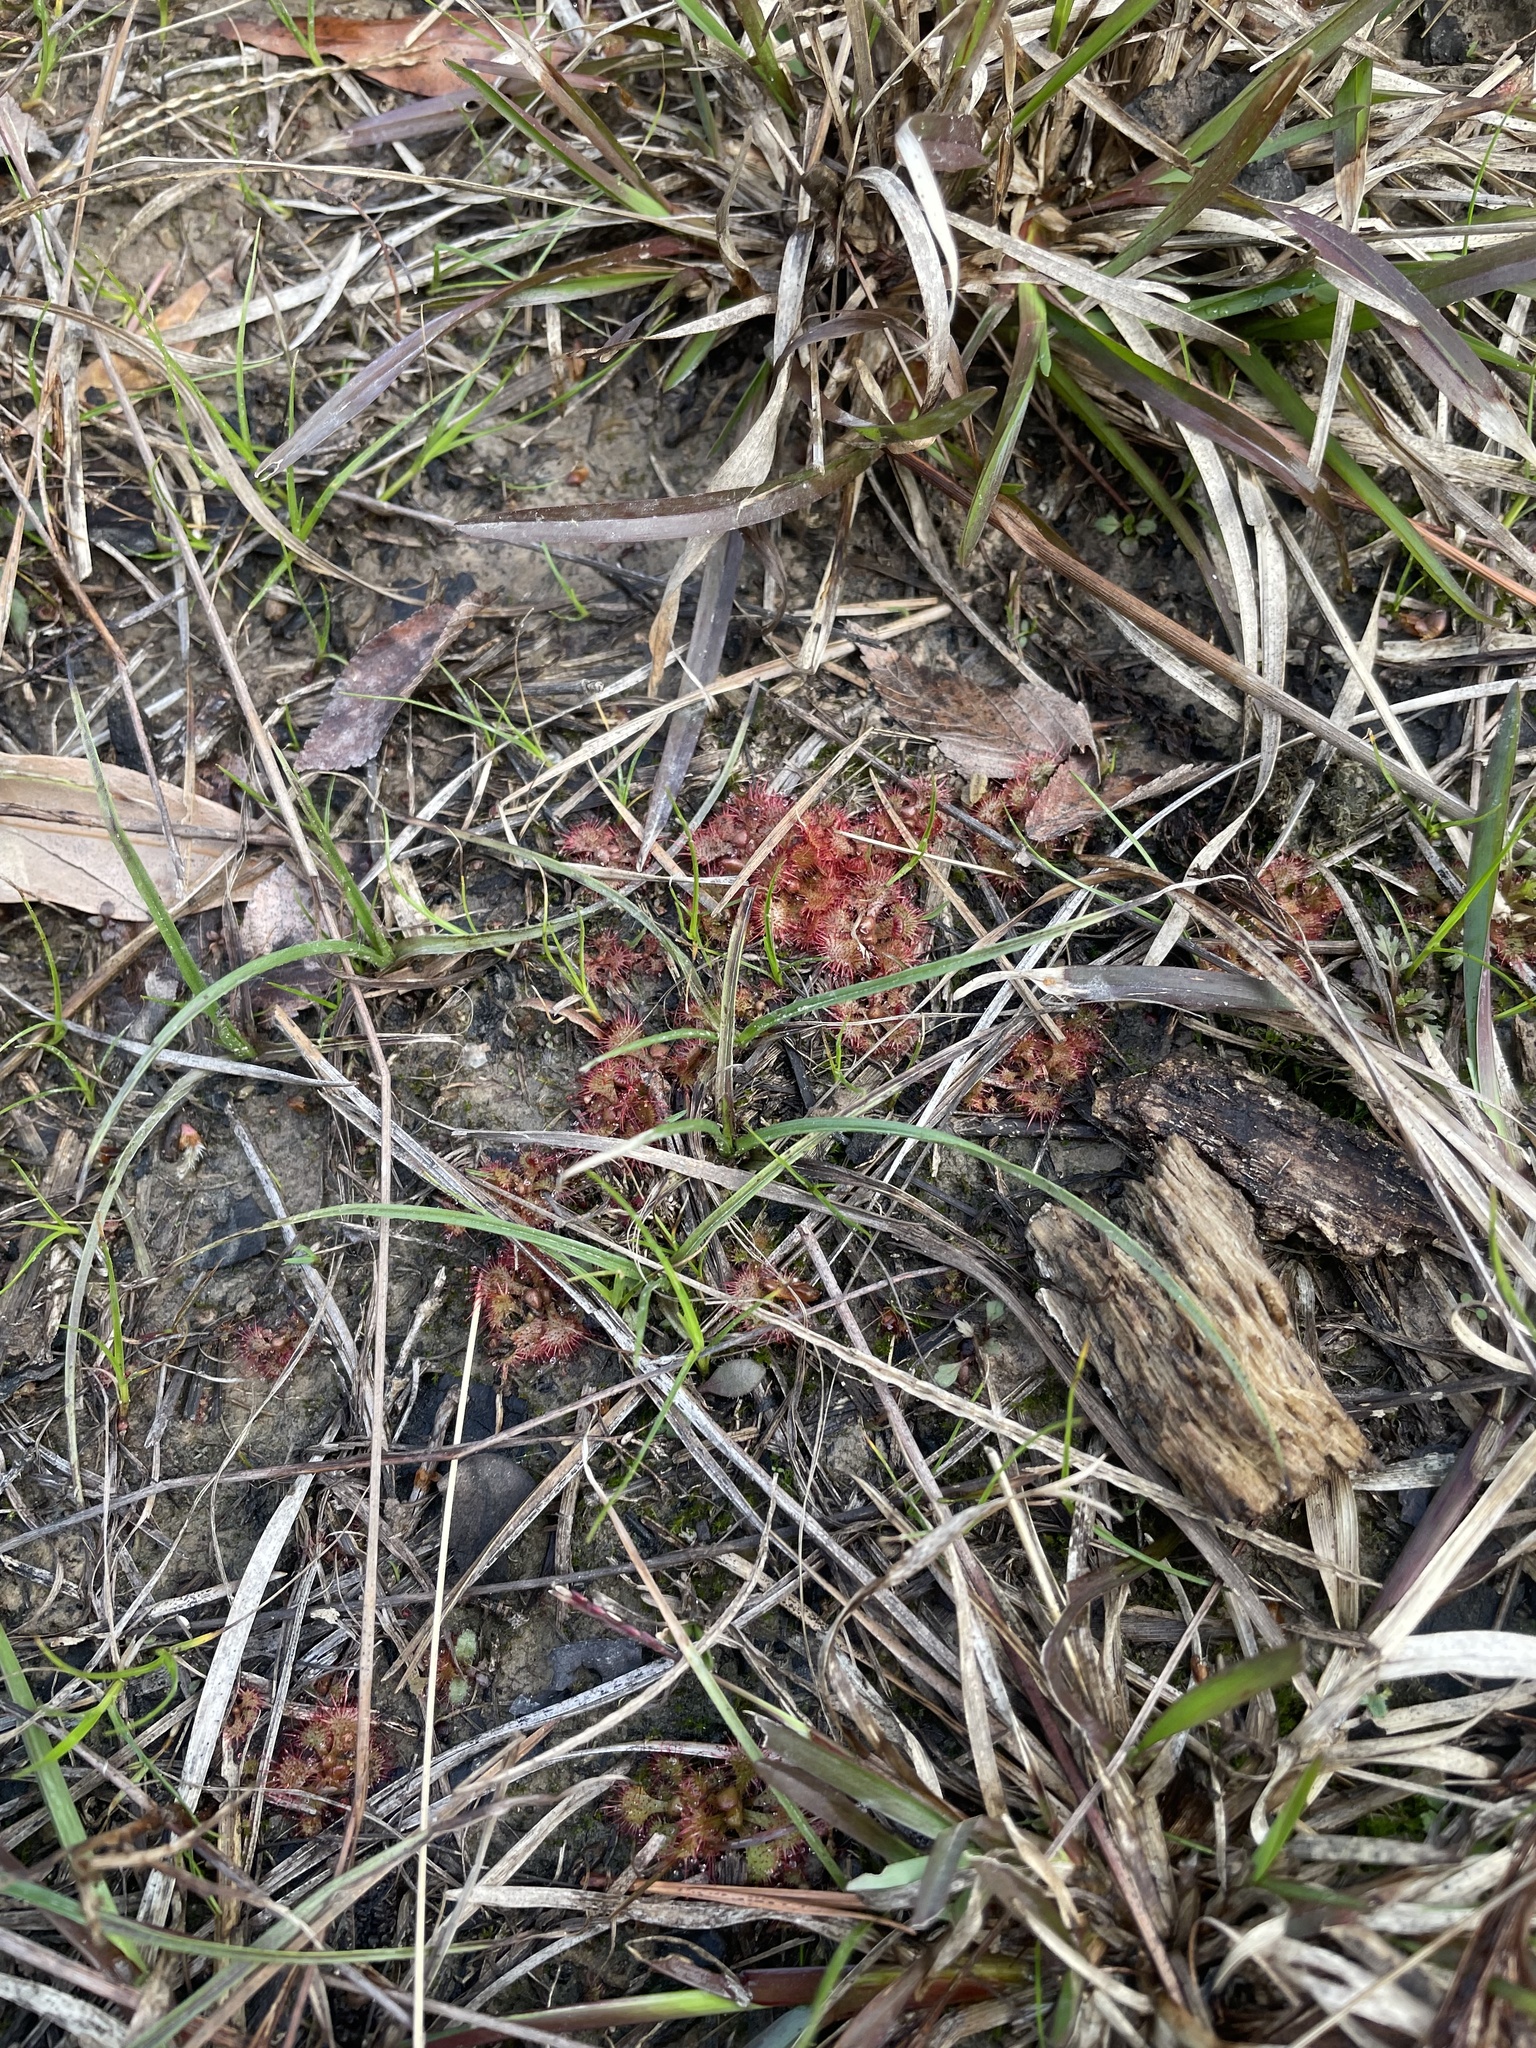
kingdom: Plantae
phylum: Tracheophyta
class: Magnoliopsida
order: Caryophyllales
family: Droseraceae
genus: Drosera
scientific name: Drosera brevifolia
